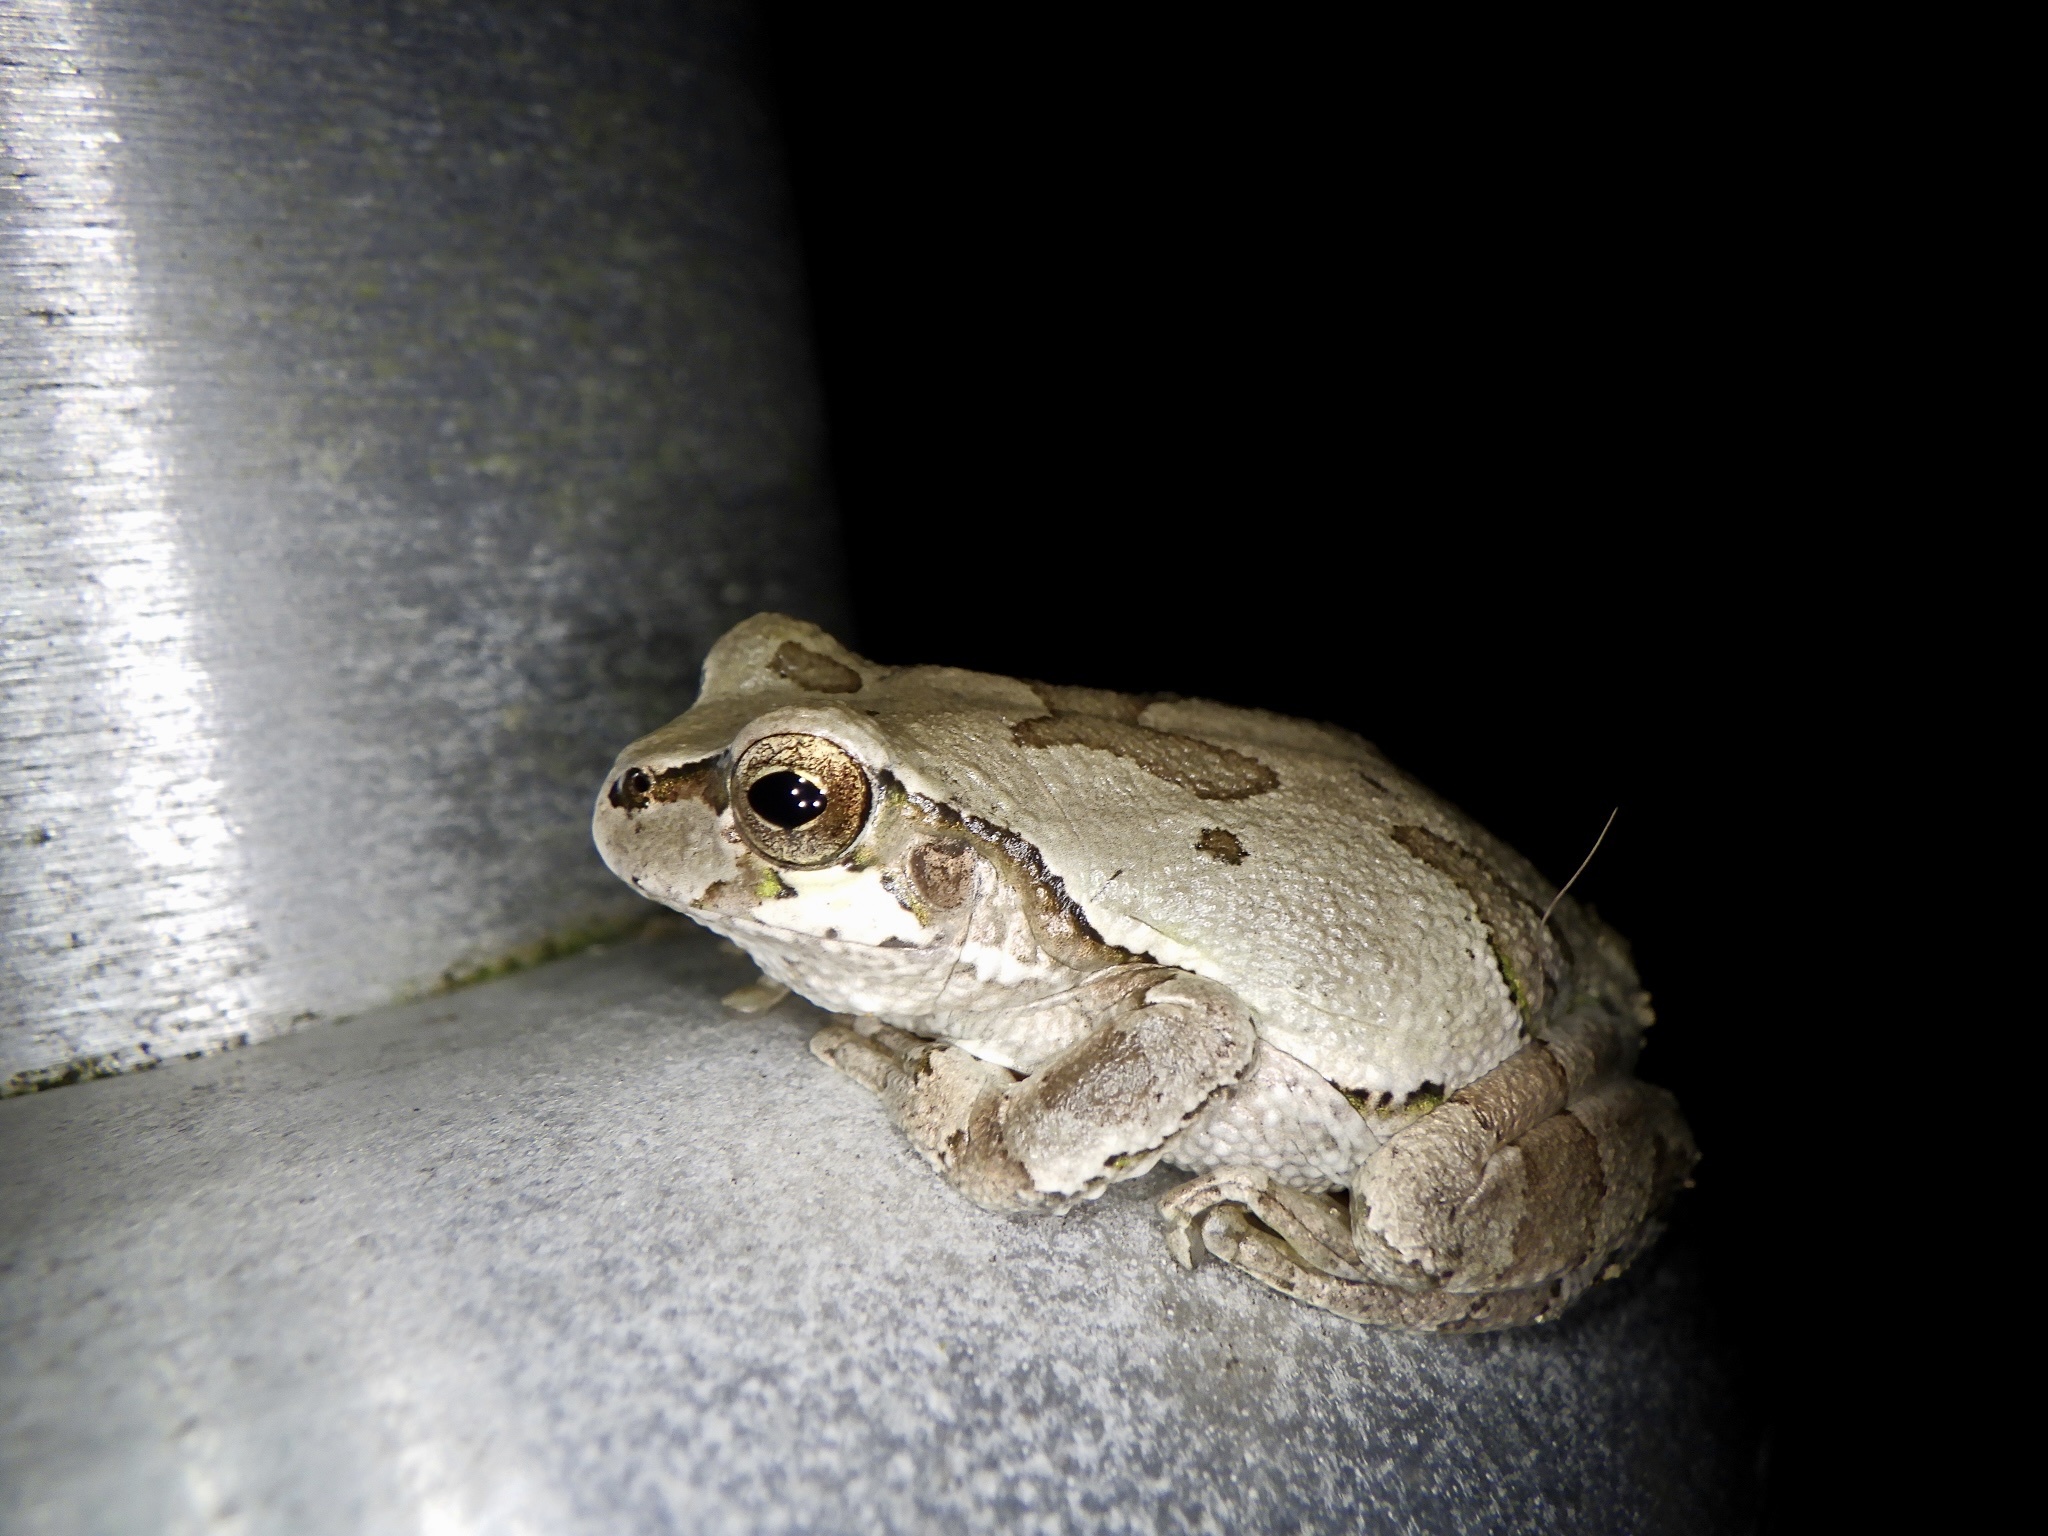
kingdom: Animalia
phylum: Chordata
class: Amphibia
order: Anura
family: Hylidae
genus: Dryophytes
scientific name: Dryophytes japonicus
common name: Japanese treefrog
